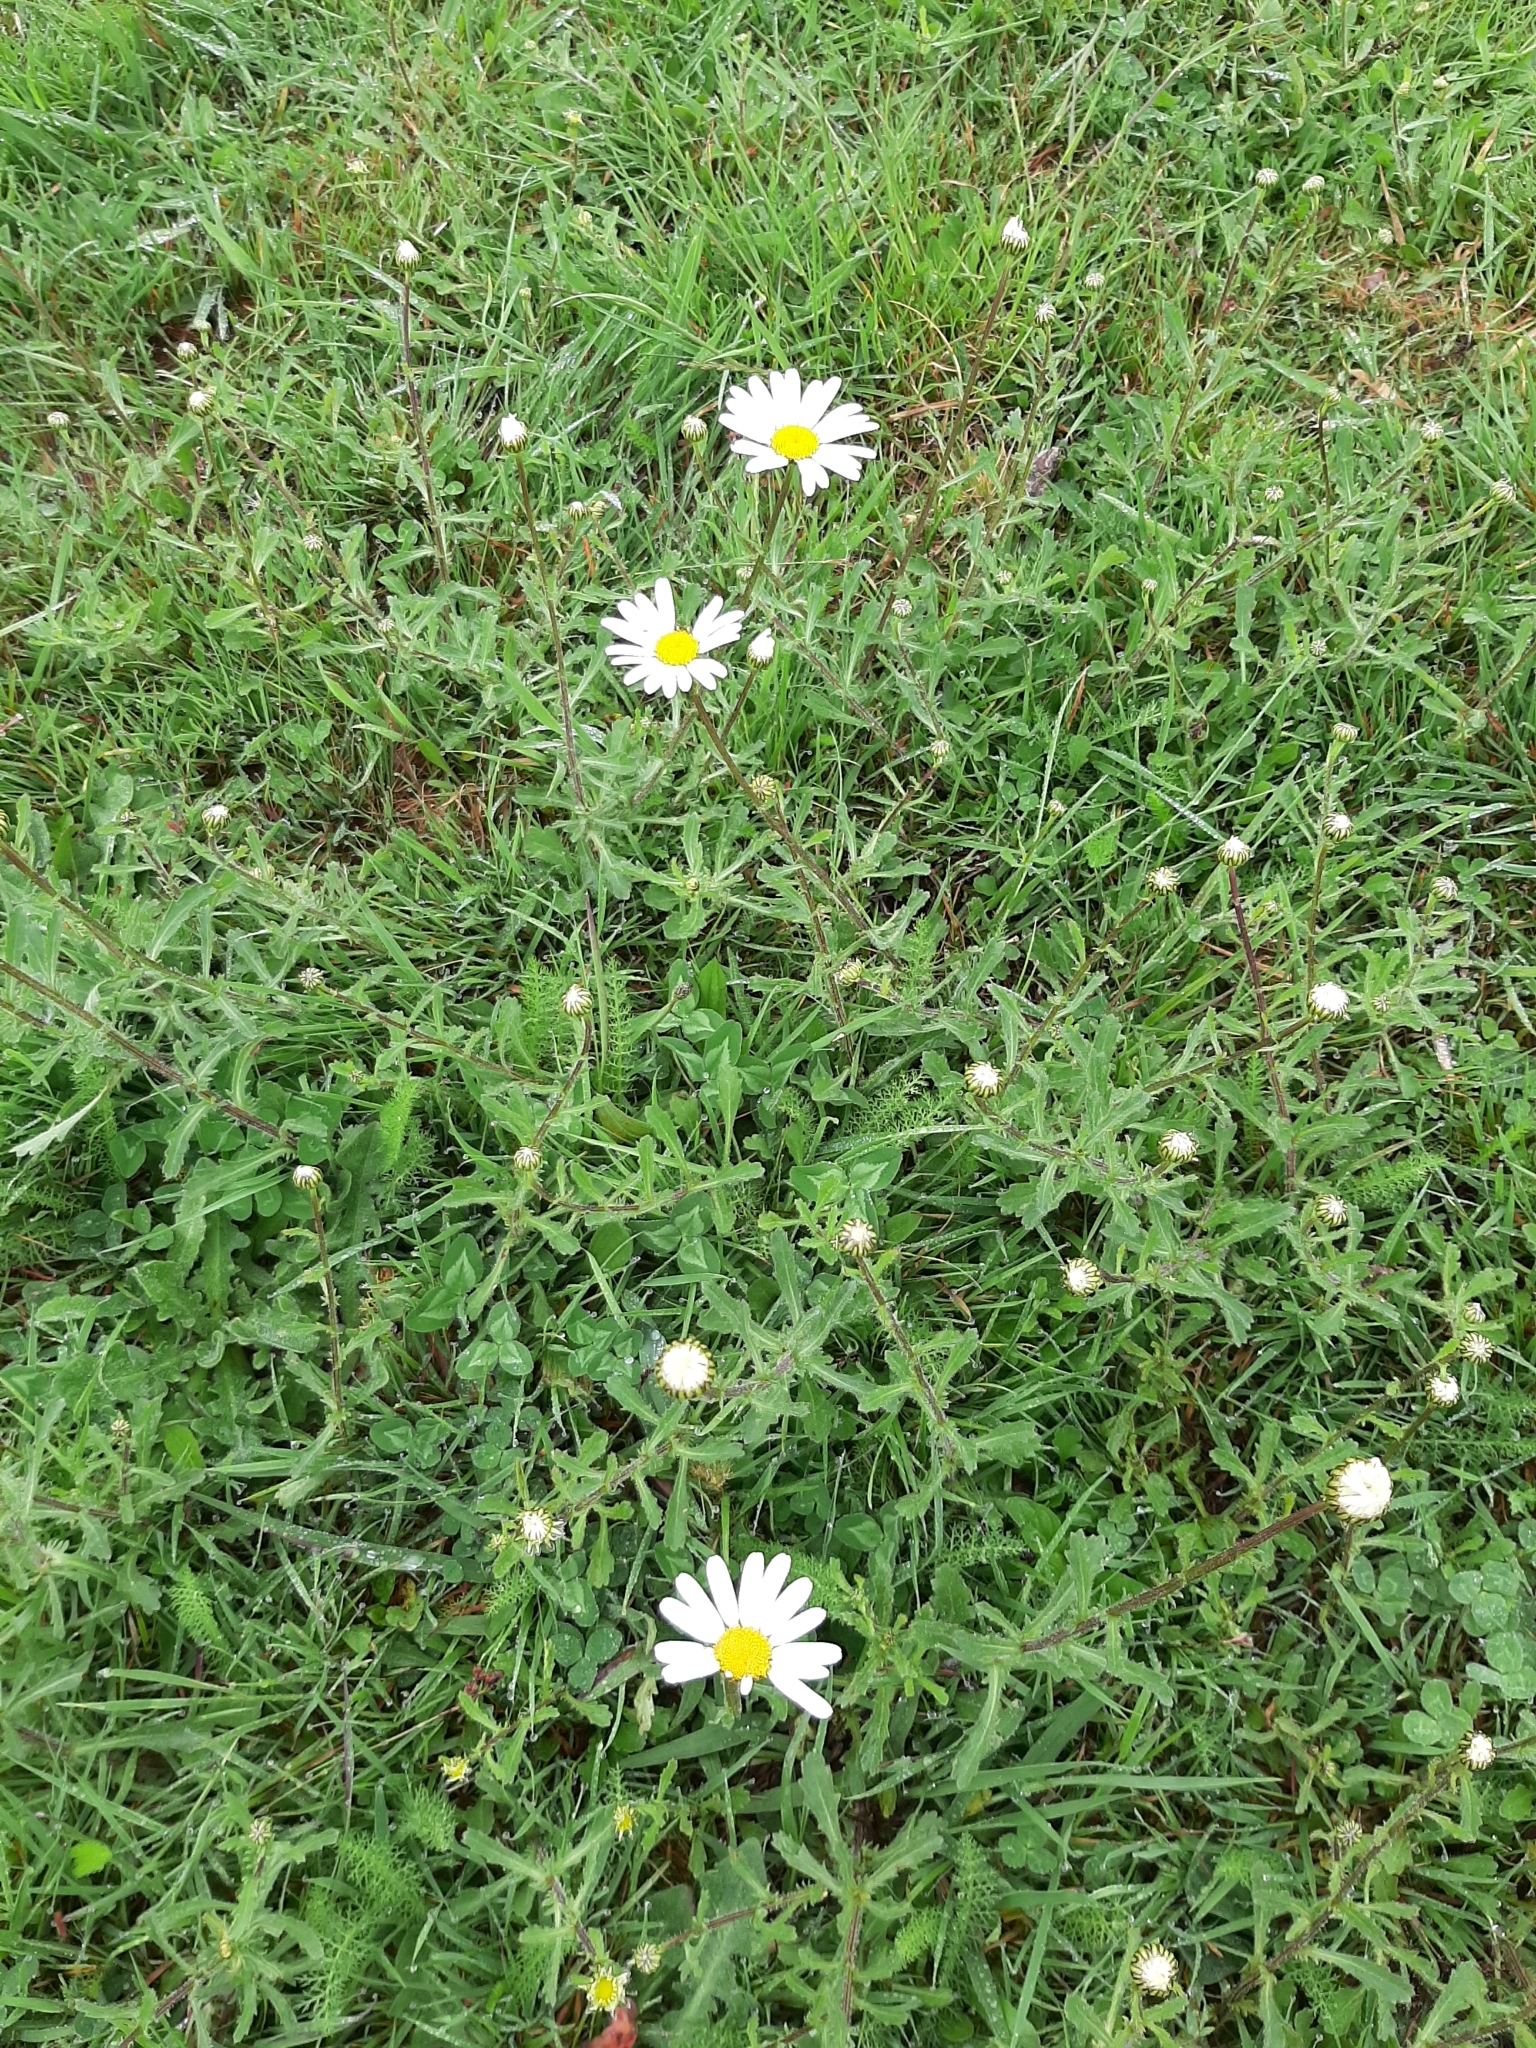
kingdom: Plantae
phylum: Tracheophyta
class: Magnoliopsida
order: Asterales
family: Asteraceae
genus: Leucanthemum
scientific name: Leucanthemum vulgare
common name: Oxeye daisy
